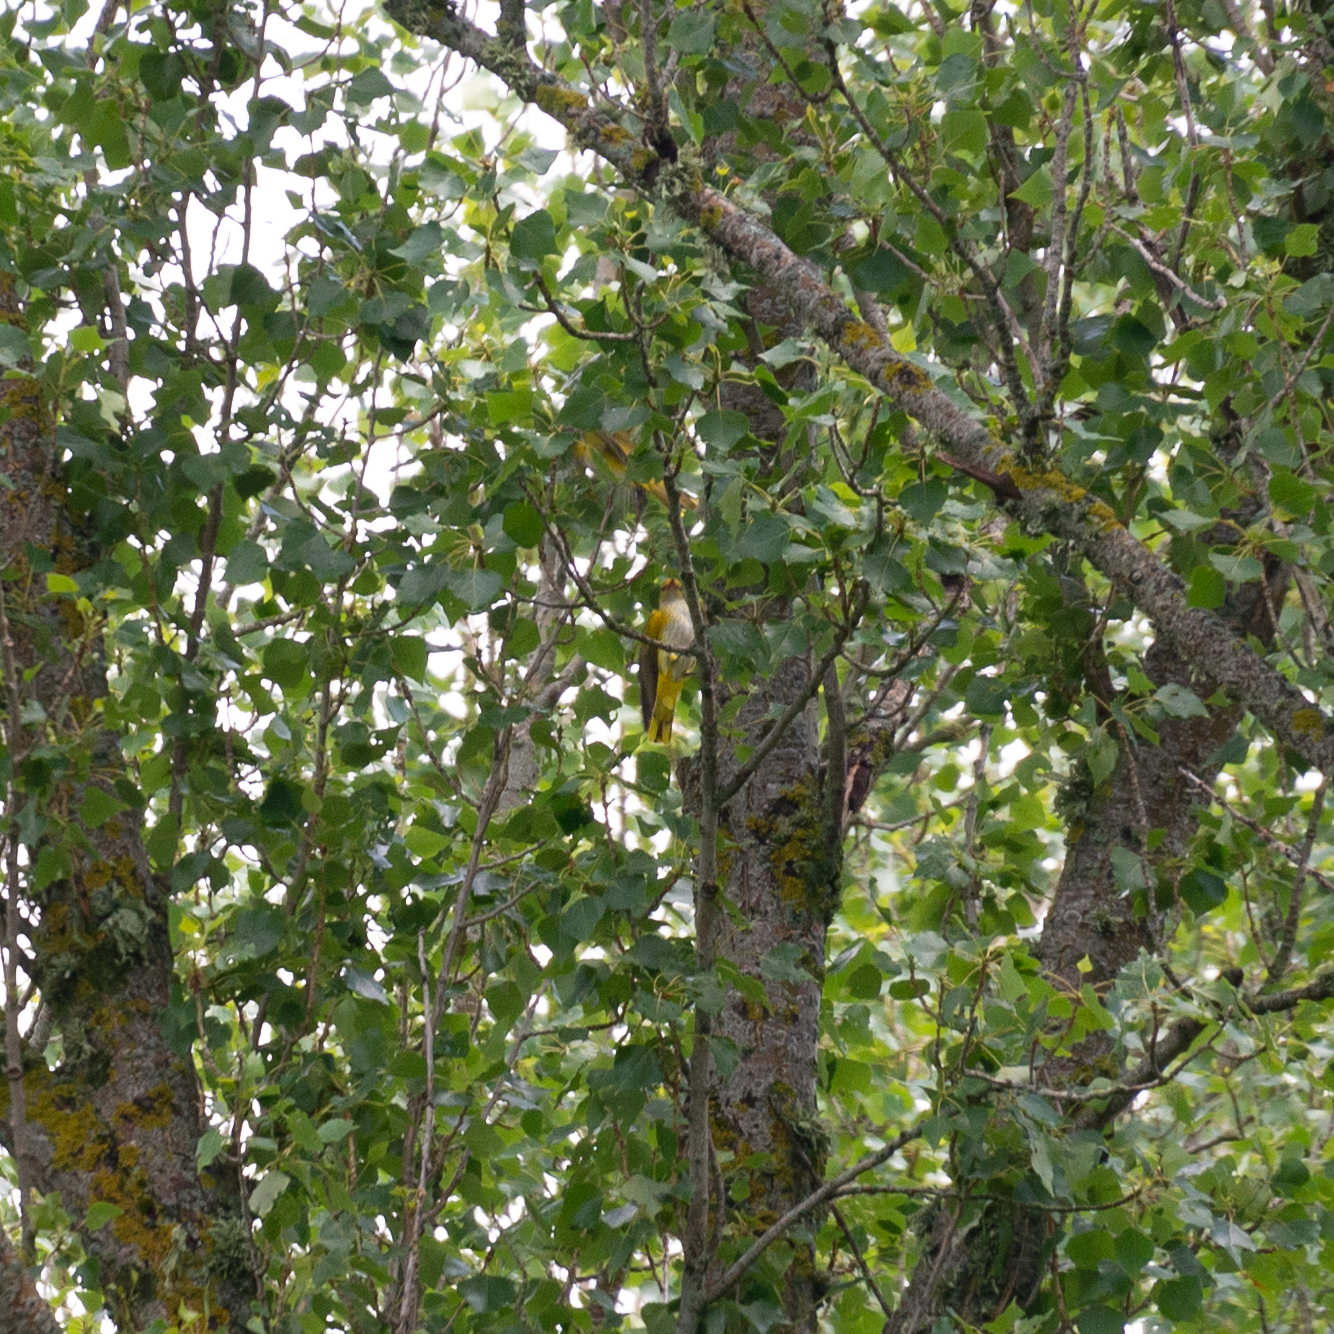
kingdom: Animalia
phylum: Chordata
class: Aves
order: Passeriformes
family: Oriolidae
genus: Oriolus
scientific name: Oriolus oriolus
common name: Eurasian golden oriole
